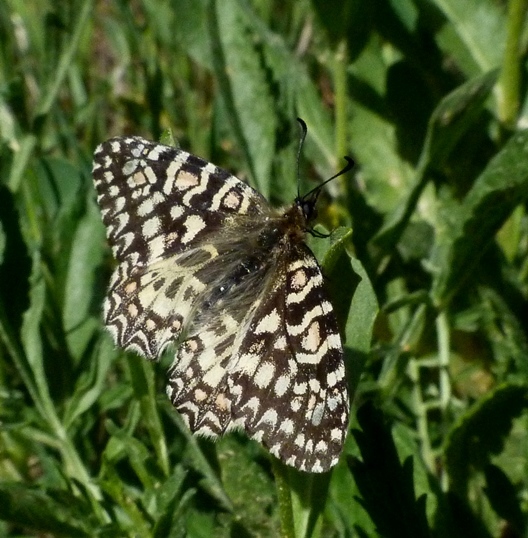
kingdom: Animalia
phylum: Arthropoda
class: Insecta
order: Lepidoptera
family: Papilionidae
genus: Zerynthia
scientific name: Zerynthia rumina
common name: Spanish festoon
